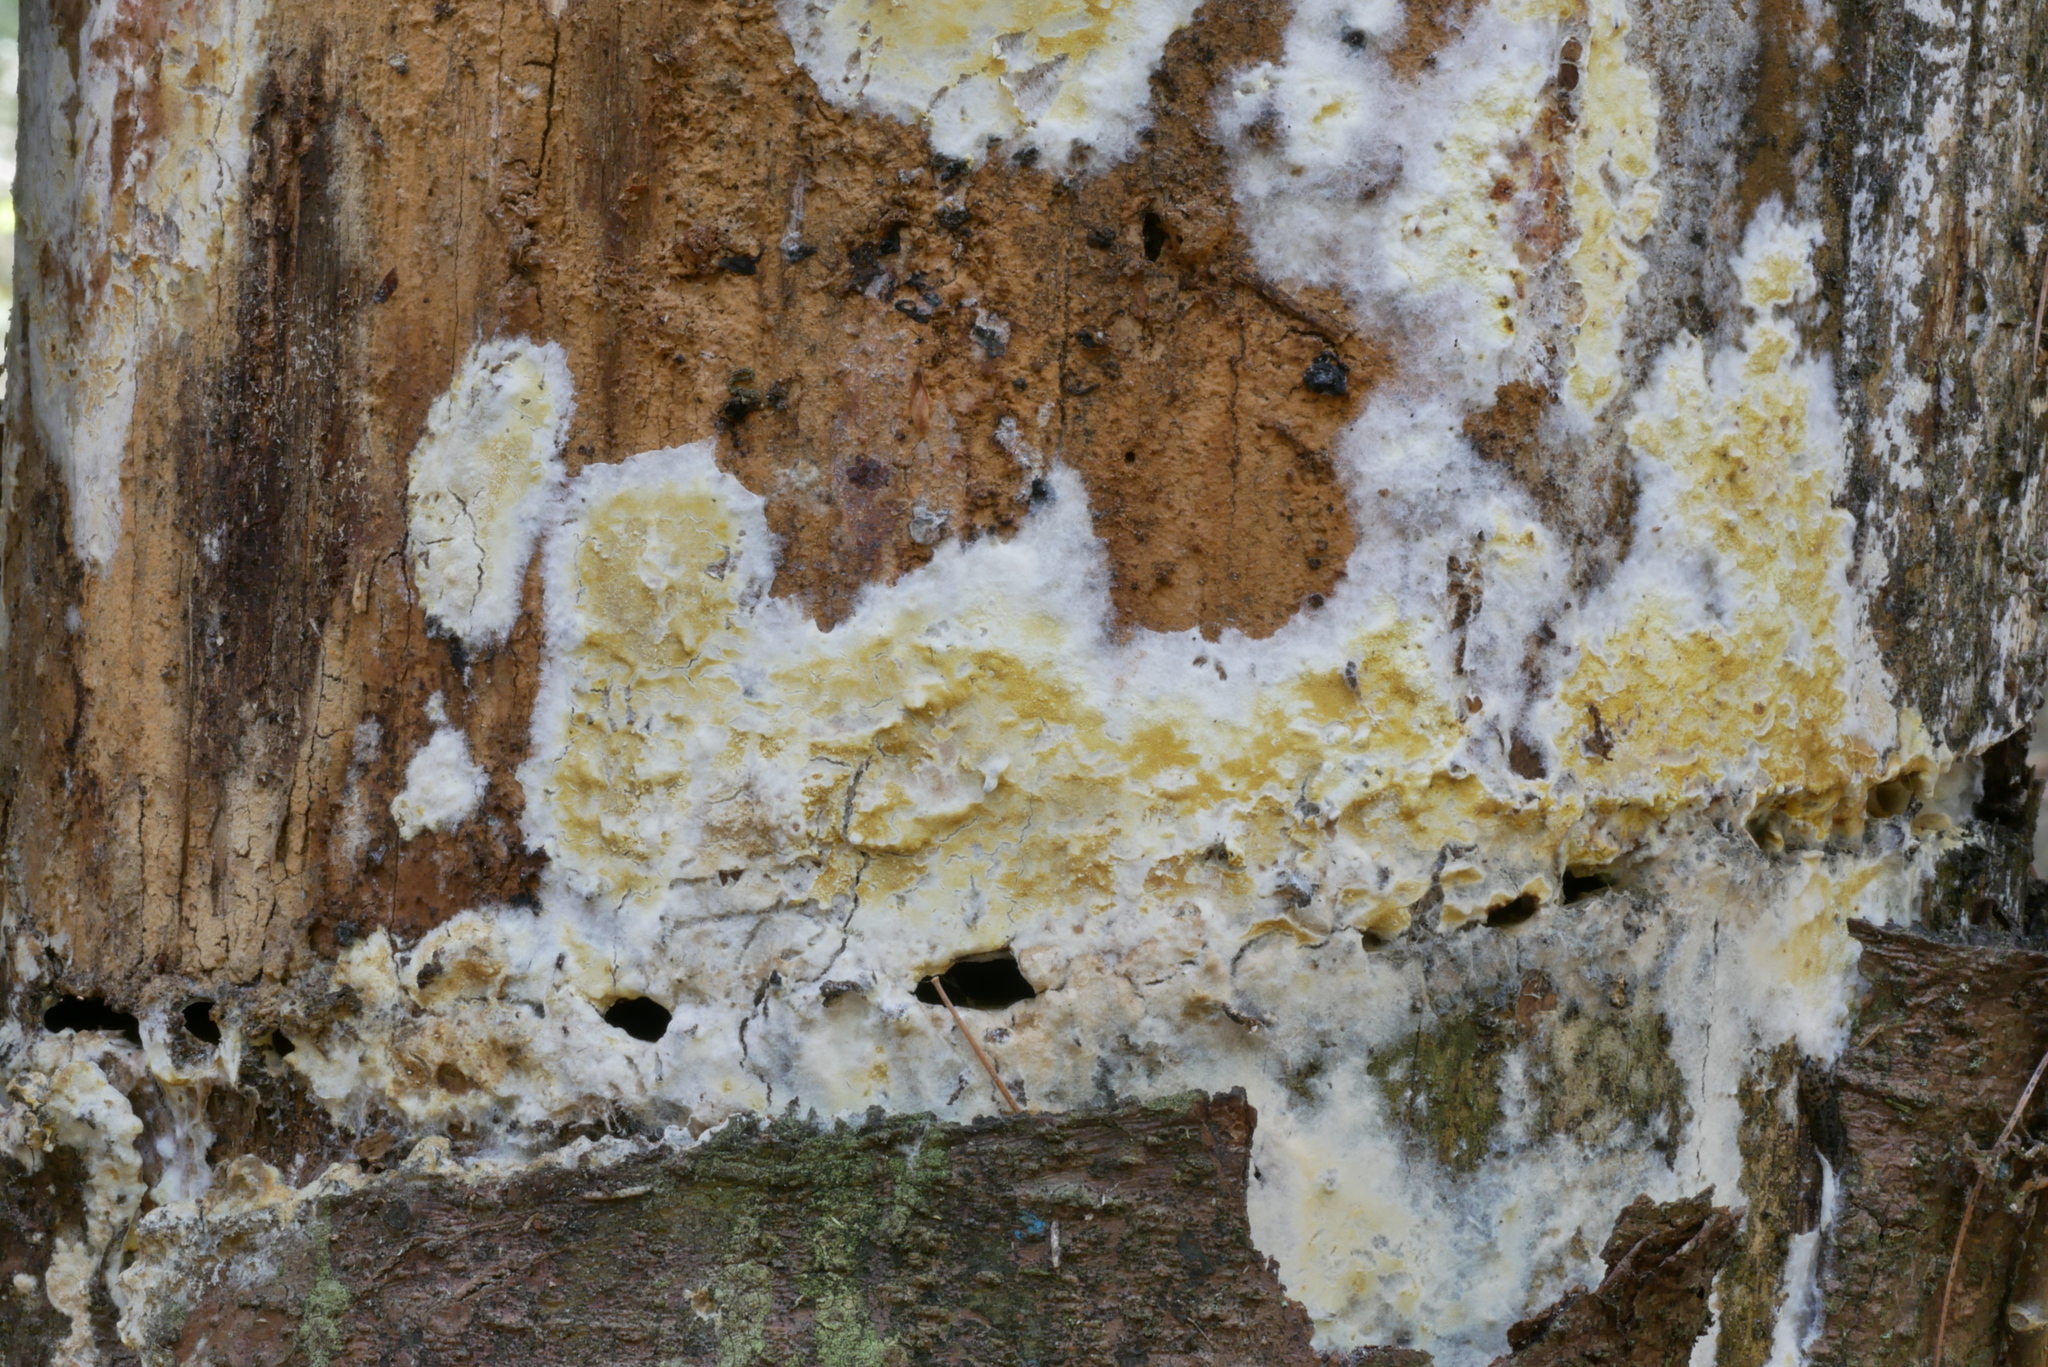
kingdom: Fungi
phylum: Basidiomycota
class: Agaricomycetes
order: Boletales
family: Coniophoraceae
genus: Penttilamyces
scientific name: Penttilamyces olivascens
